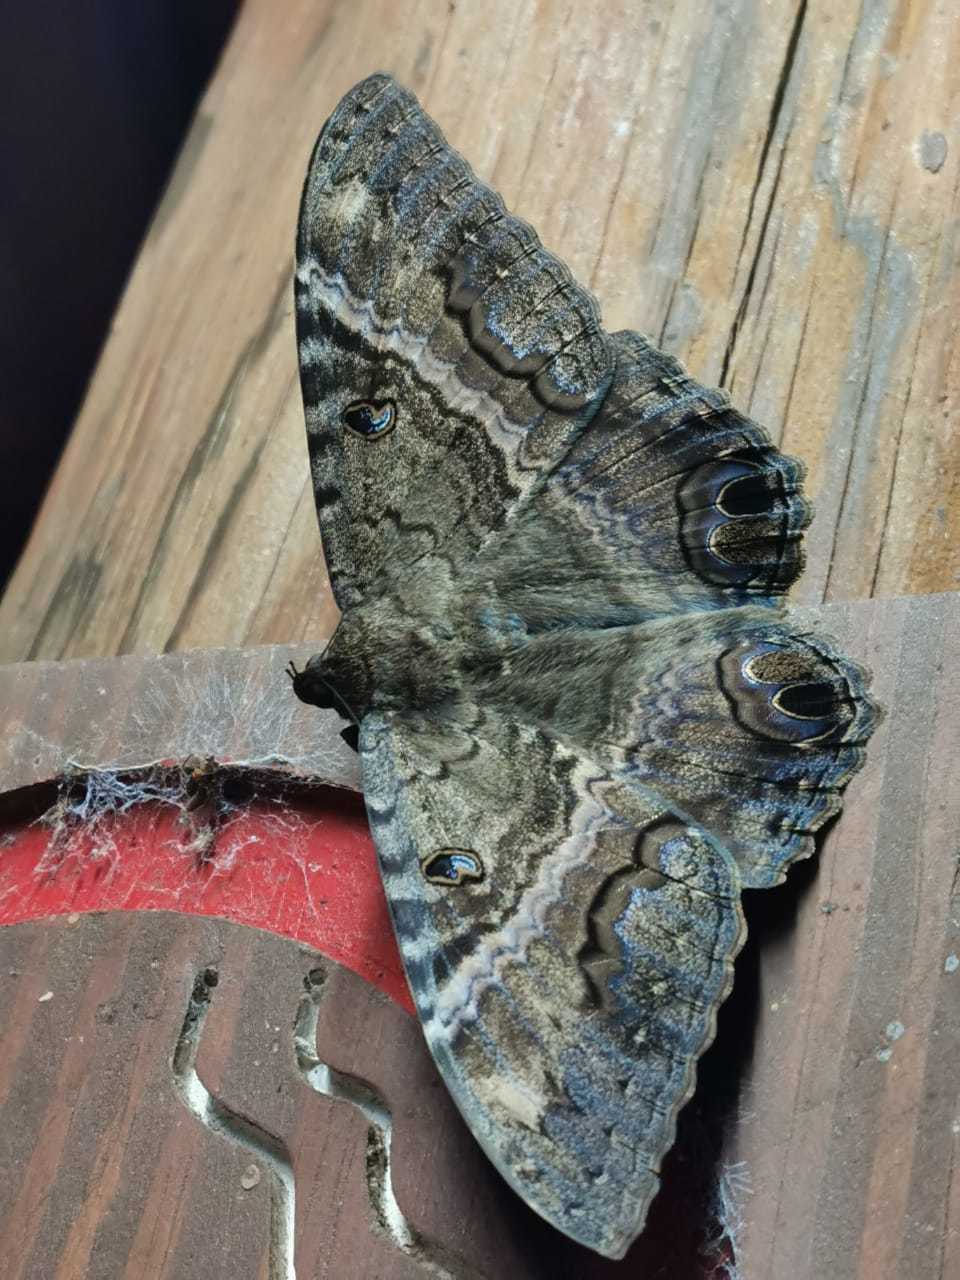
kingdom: Animalia
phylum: Arthropoda
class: Insecta
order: Lepidoptera
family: Erebidae
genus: Ascalapha
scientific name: Ascalapha odorata
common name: Black witch
